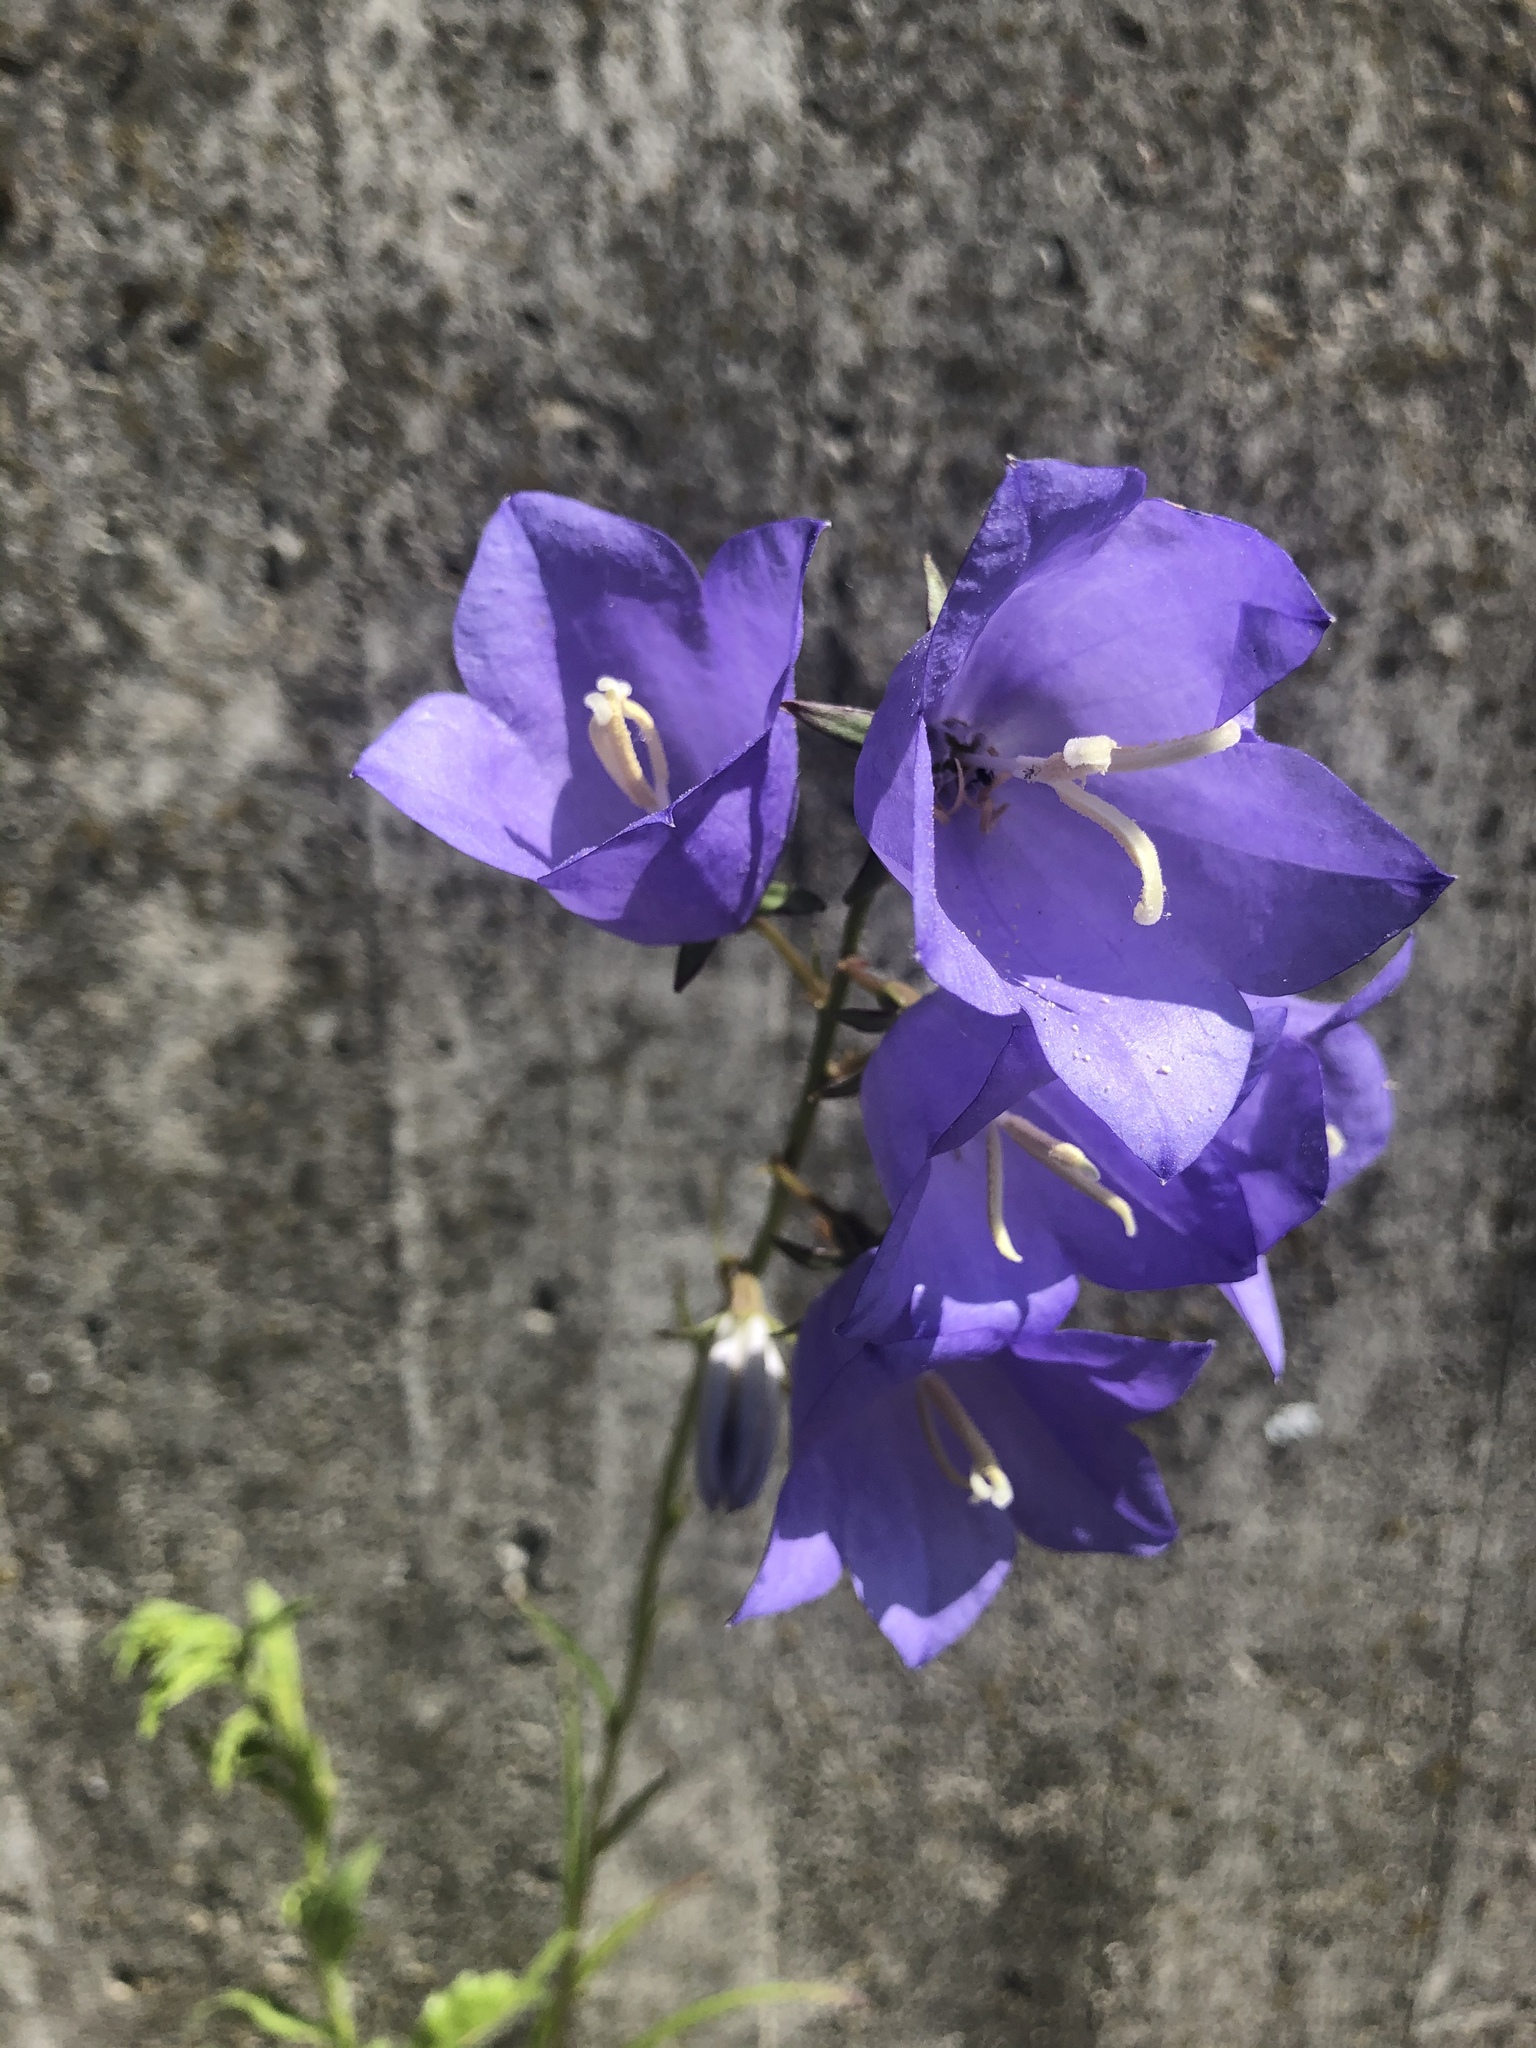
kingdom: Plantae
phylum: Tracheophyta
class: Magnoliopsida
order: Asterales
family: Campanulaceae
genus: Campanula
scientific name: Campanula persicifolia
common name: Peach-leaved bellflower
